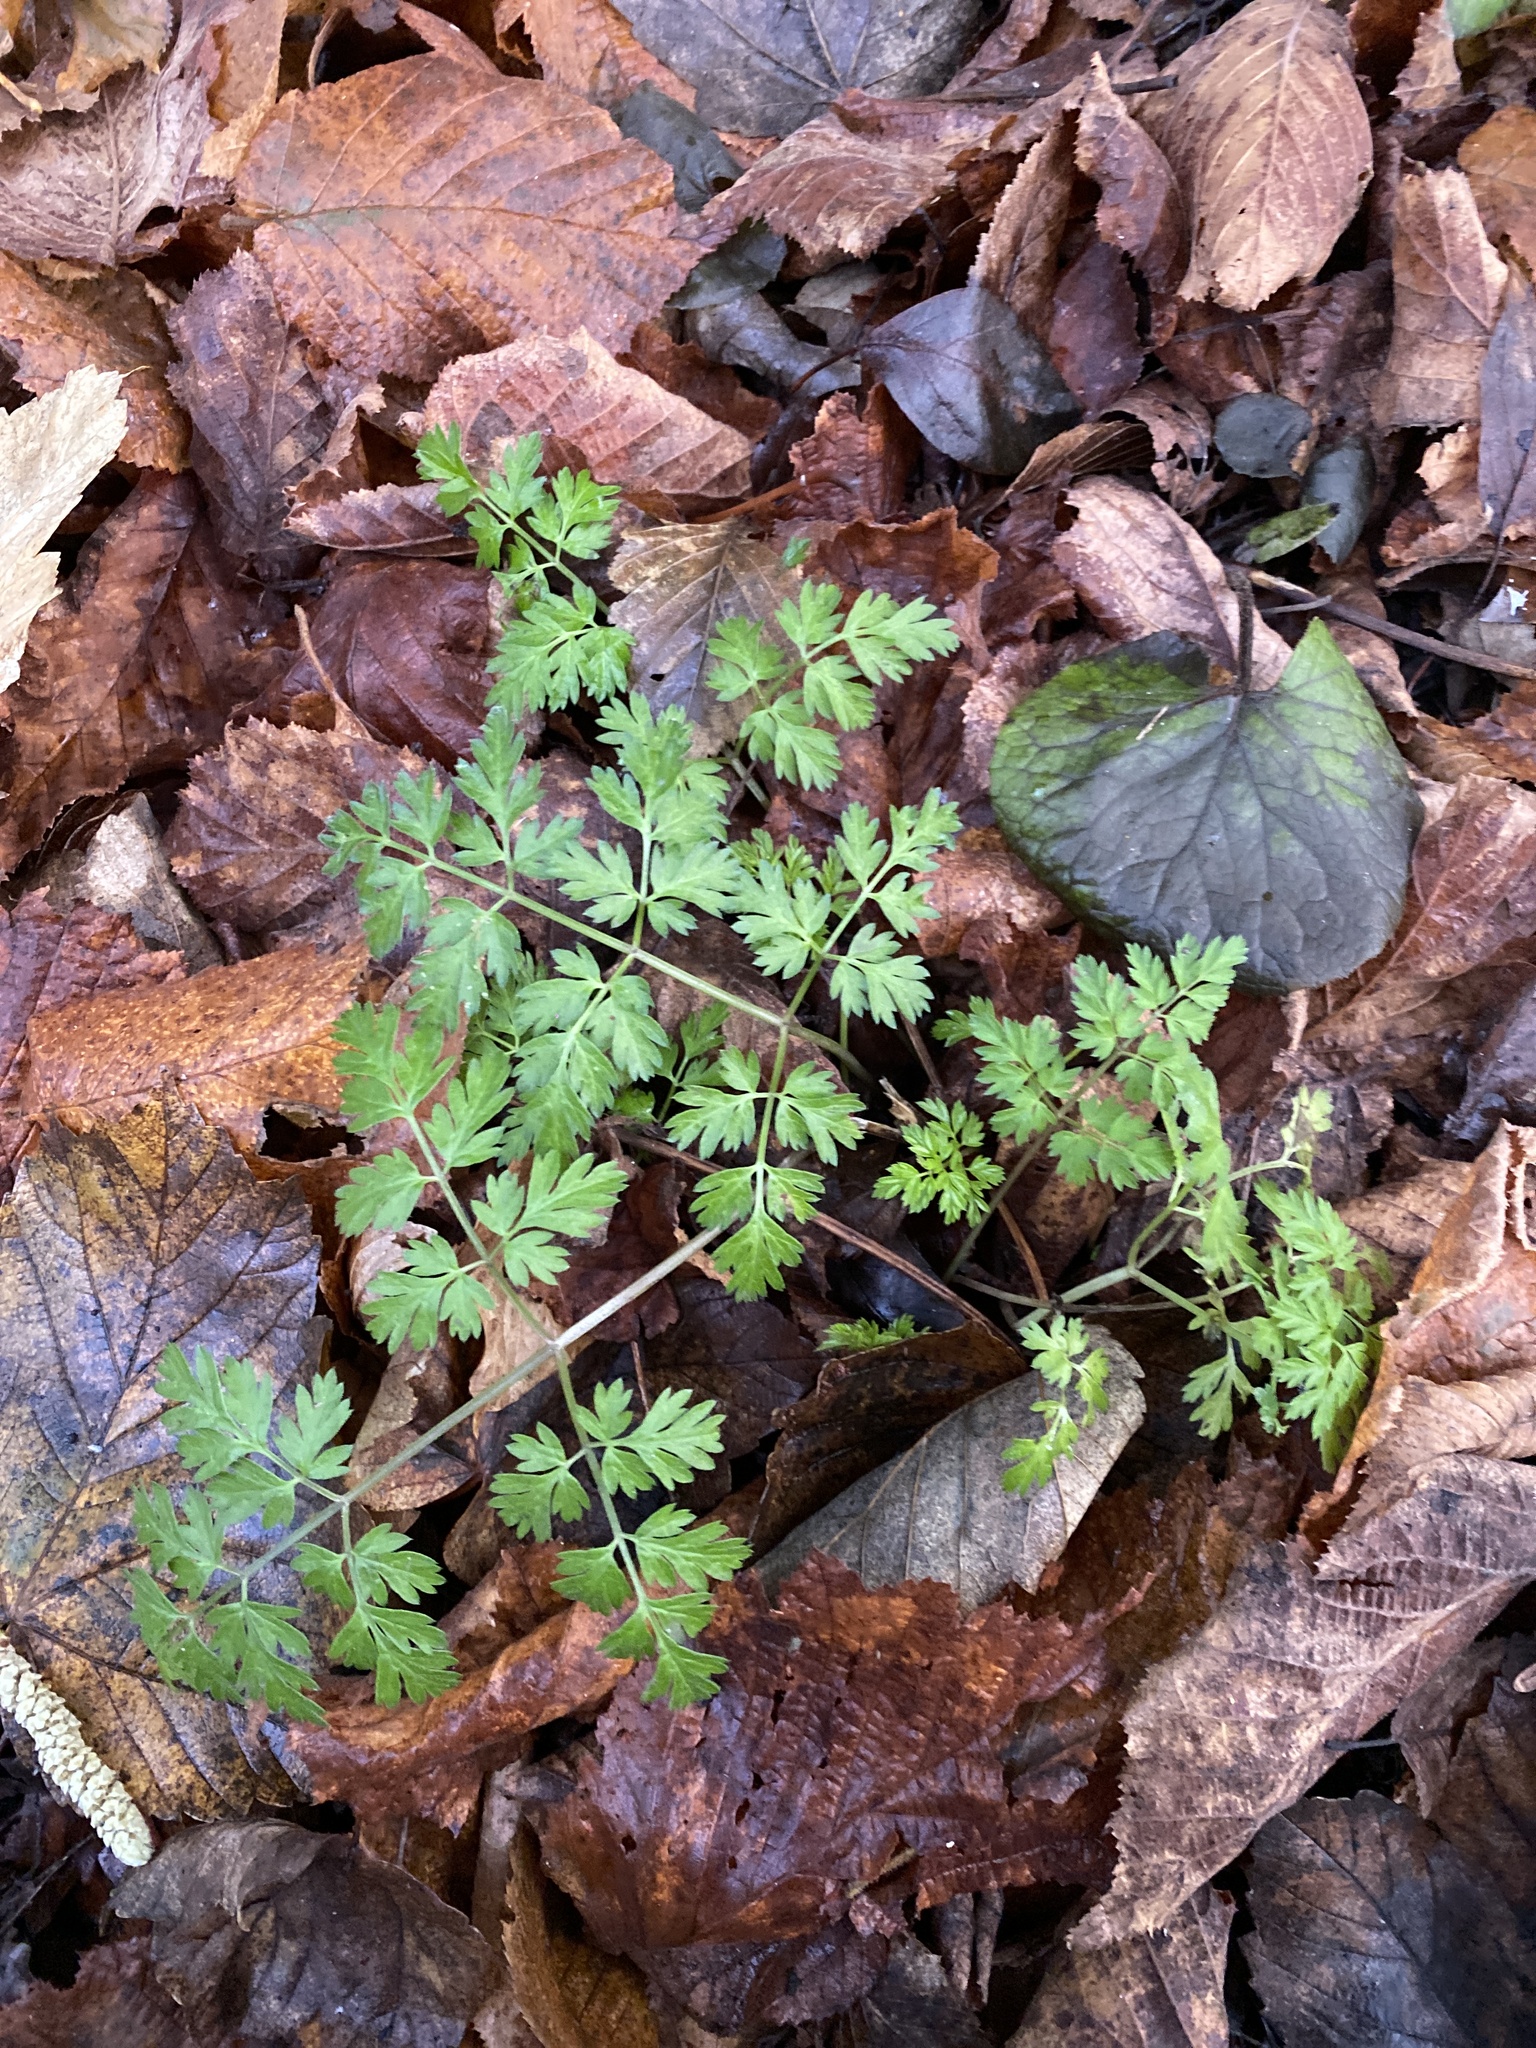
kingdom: Plantae
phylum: Tracheophyta
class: Magnoliopsida
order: Apiales
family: Apiaceae
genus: Anthriscus
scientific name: Anthriscus sylvestris
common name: Cow parsley
